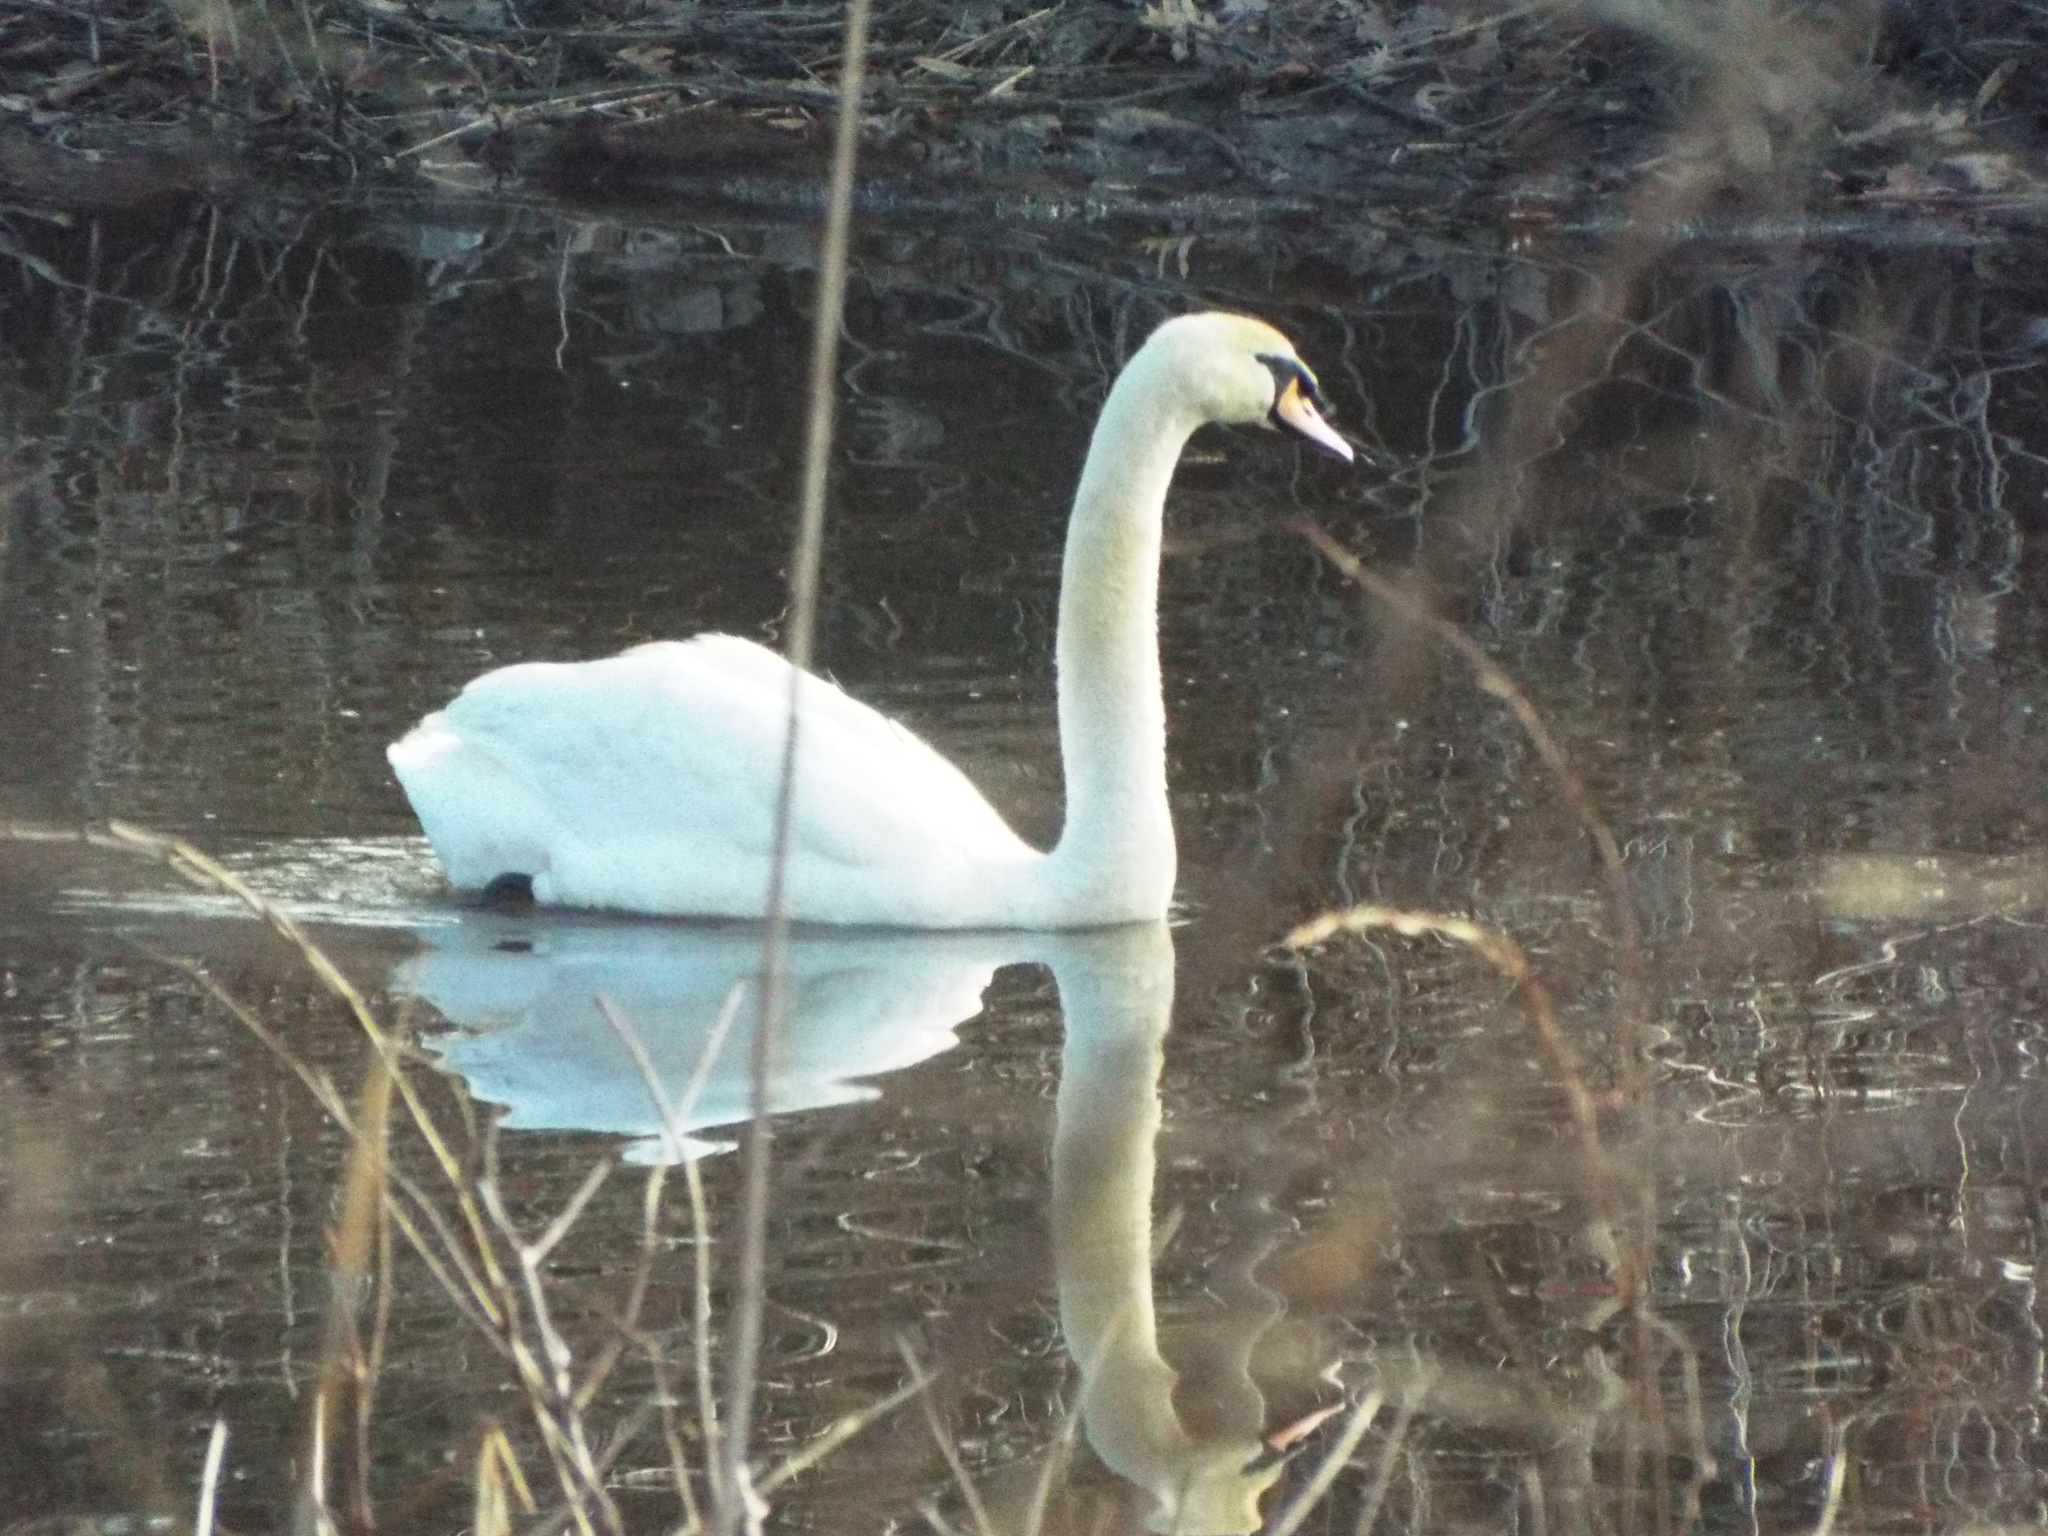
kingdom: Animalia
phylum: Chordata
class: Aves
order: Anseriformes
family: Anatidae
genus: Cygnus
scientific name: Cygnus olor
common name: Mute swan
